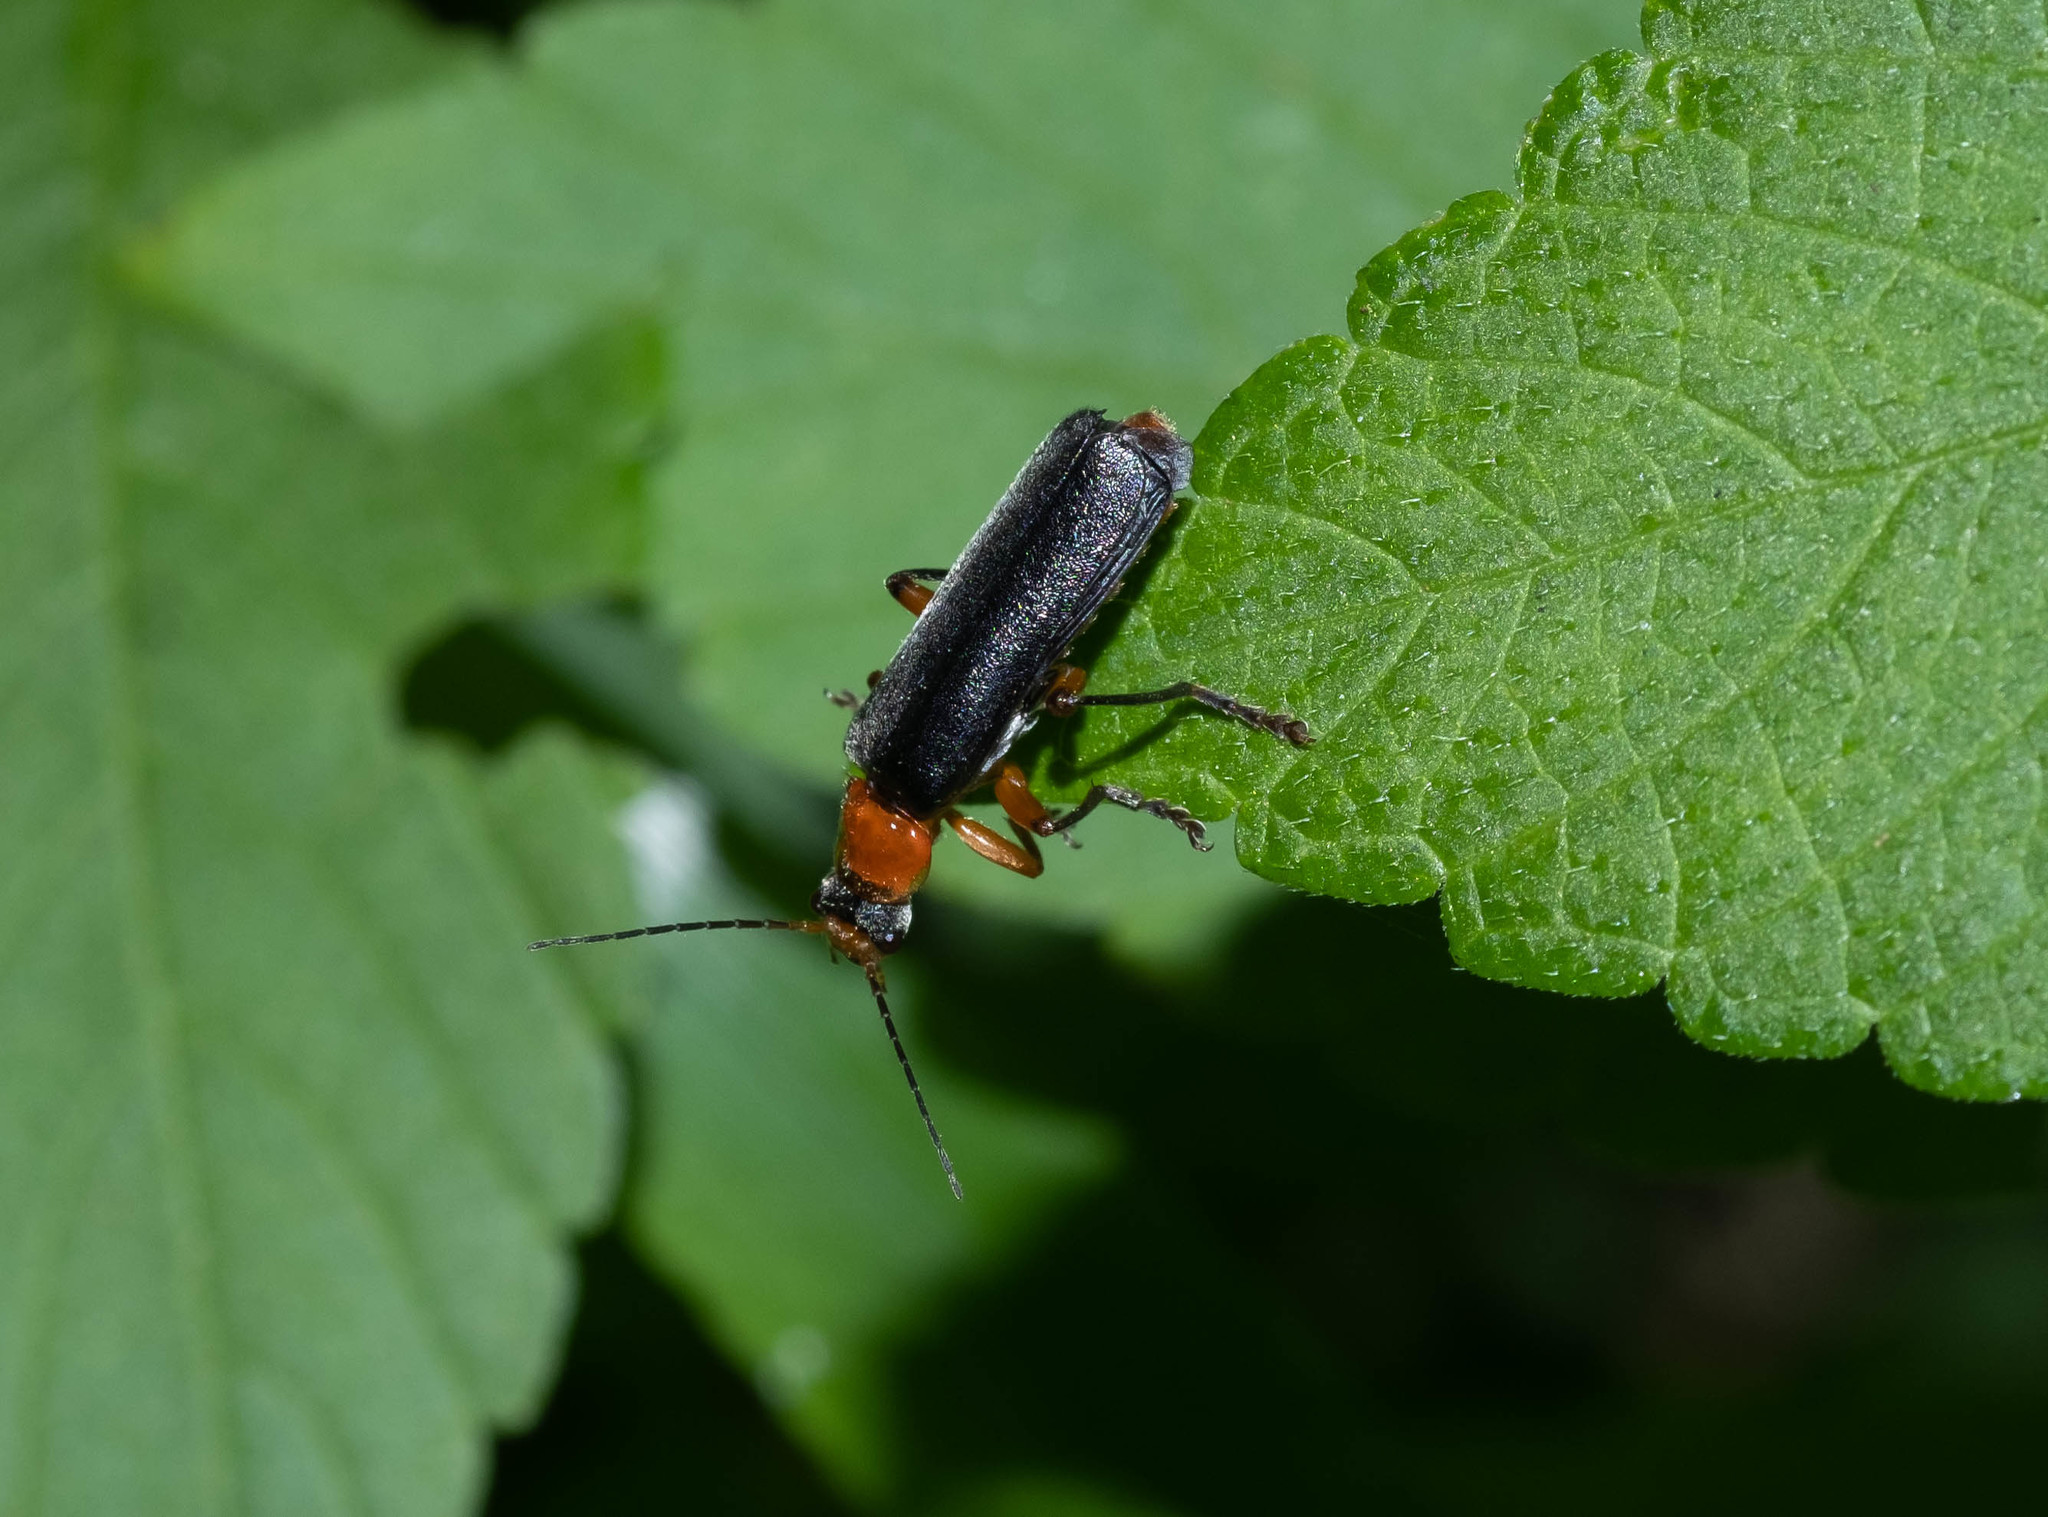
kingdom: Animalia
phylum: Arthropoda
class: Insecta
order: Coleoptera
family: Cantharidae
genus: Cantharis
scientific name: Cantharis pellucida
